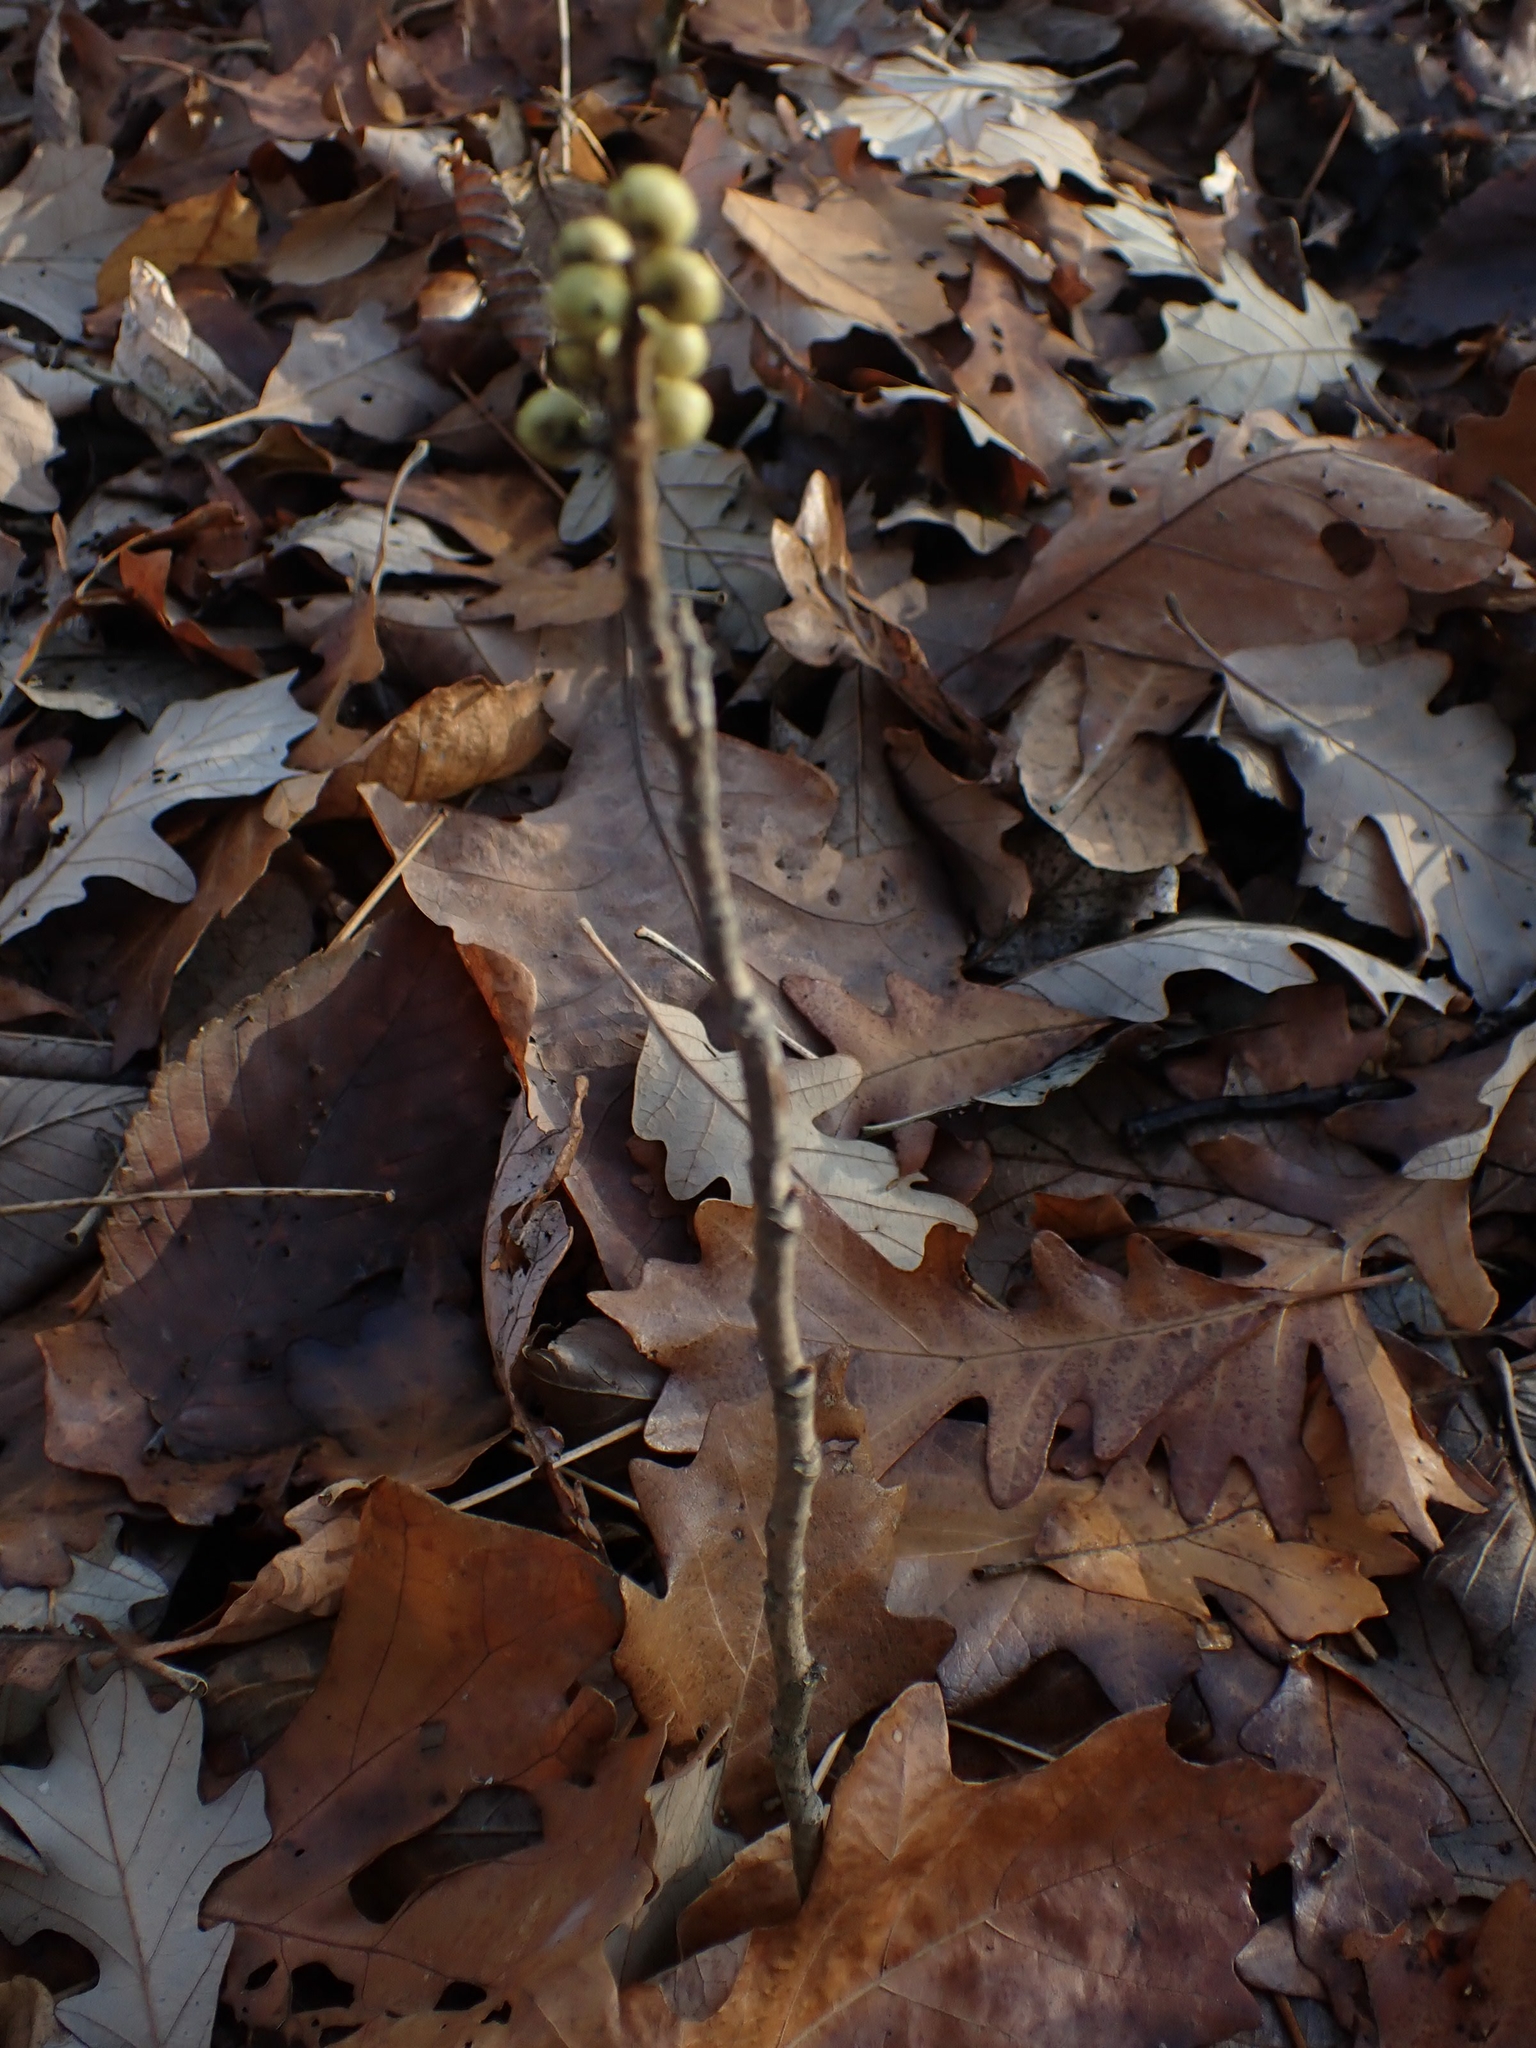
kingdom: Plantae
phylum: Tracheophyta
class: Magnoliopsida
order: Sapindales
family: Anacardiaceae
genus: Toxicodendron
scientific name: Toxicodendron rydbergii
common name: Rydberg's poison-ivy
